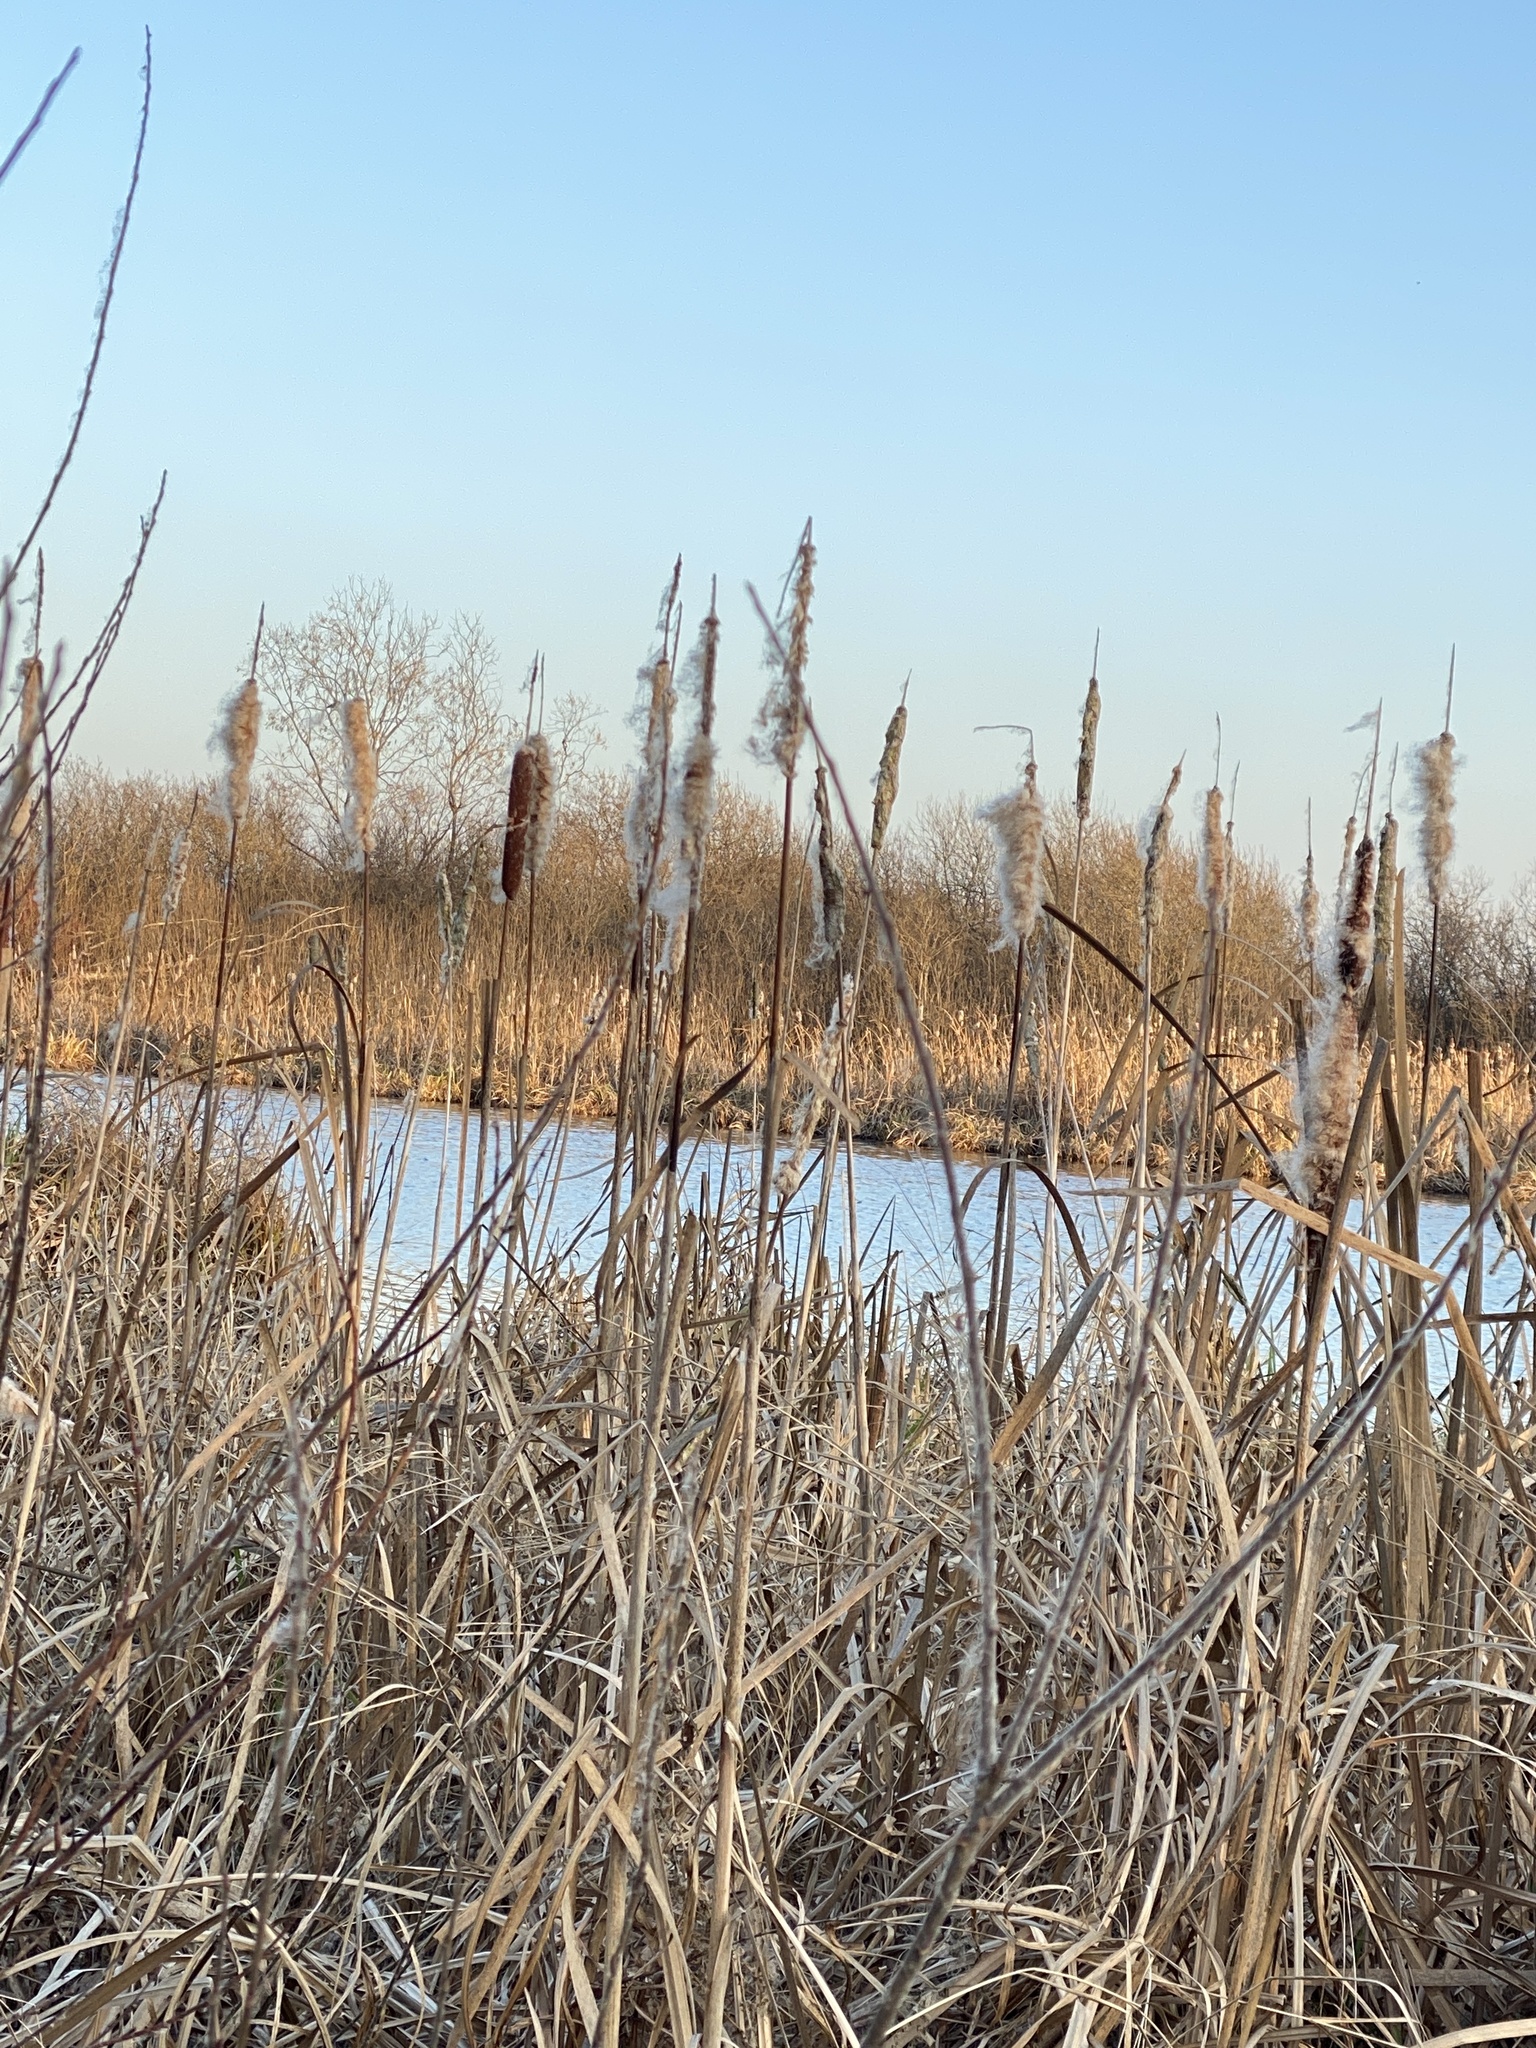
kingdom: Plantae
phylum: Tracheophyta
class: Liliopsida
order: Poales
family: Typhaceae
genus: Typha
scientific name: Typha latifolia
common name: Broadleaf cattail
